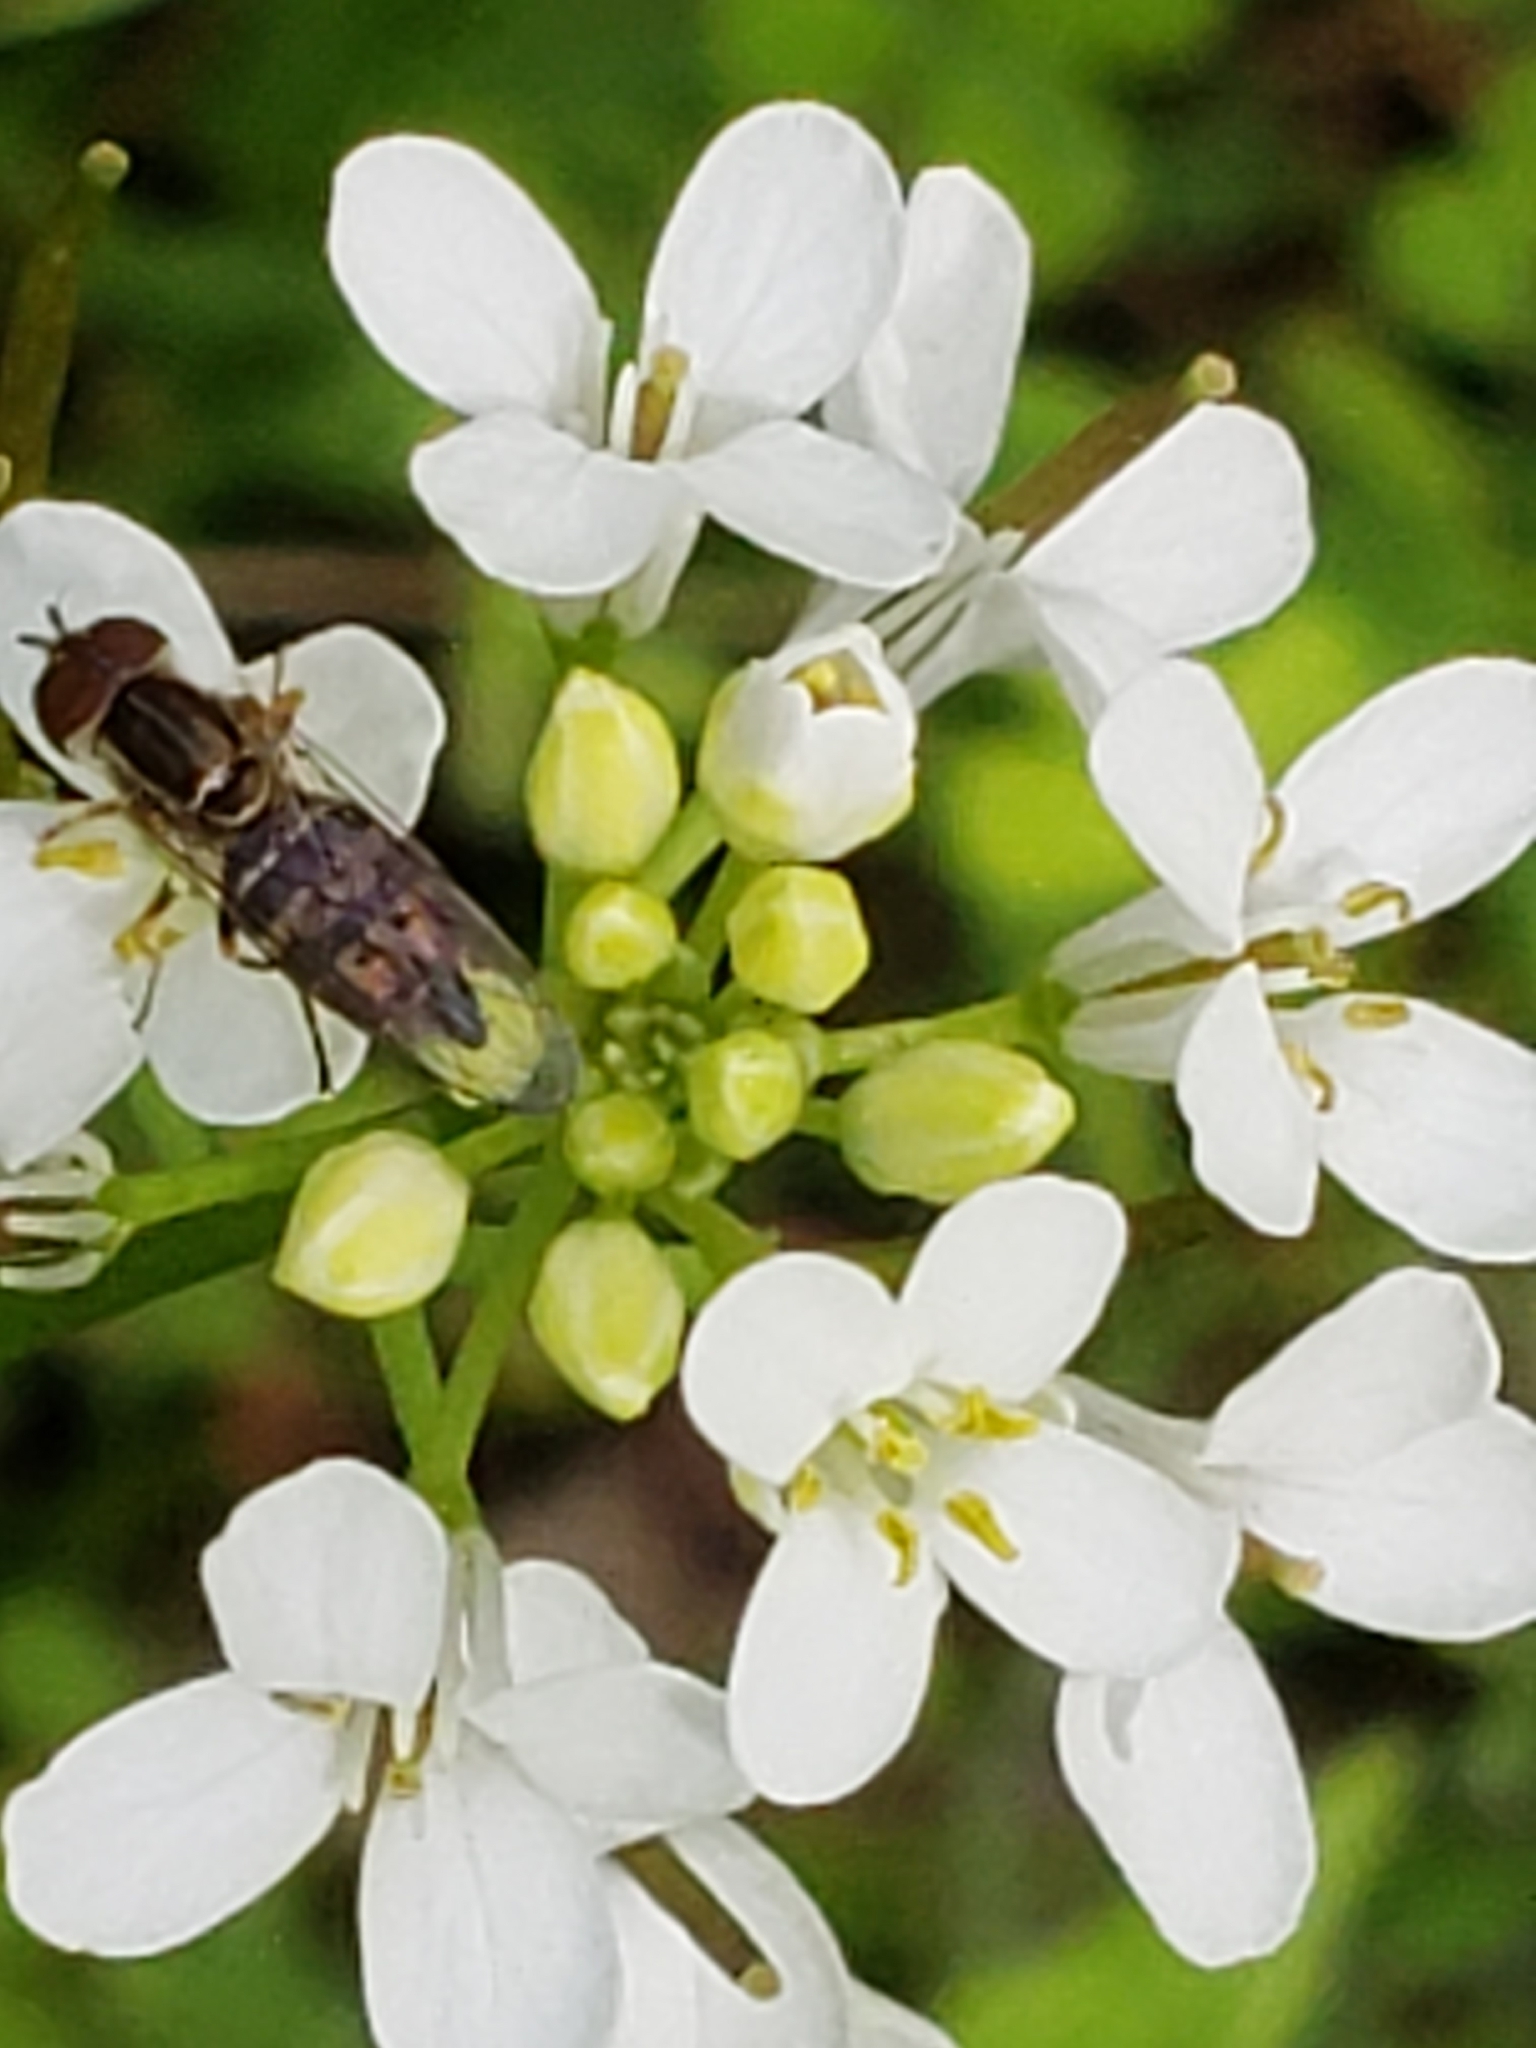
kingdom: Animalia
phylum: Arthropoda
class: Insecta
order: Diptera
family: Syrphidae
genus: Toxomerus
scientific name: Toxomerus geminatus
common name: Eastern calligrapher
